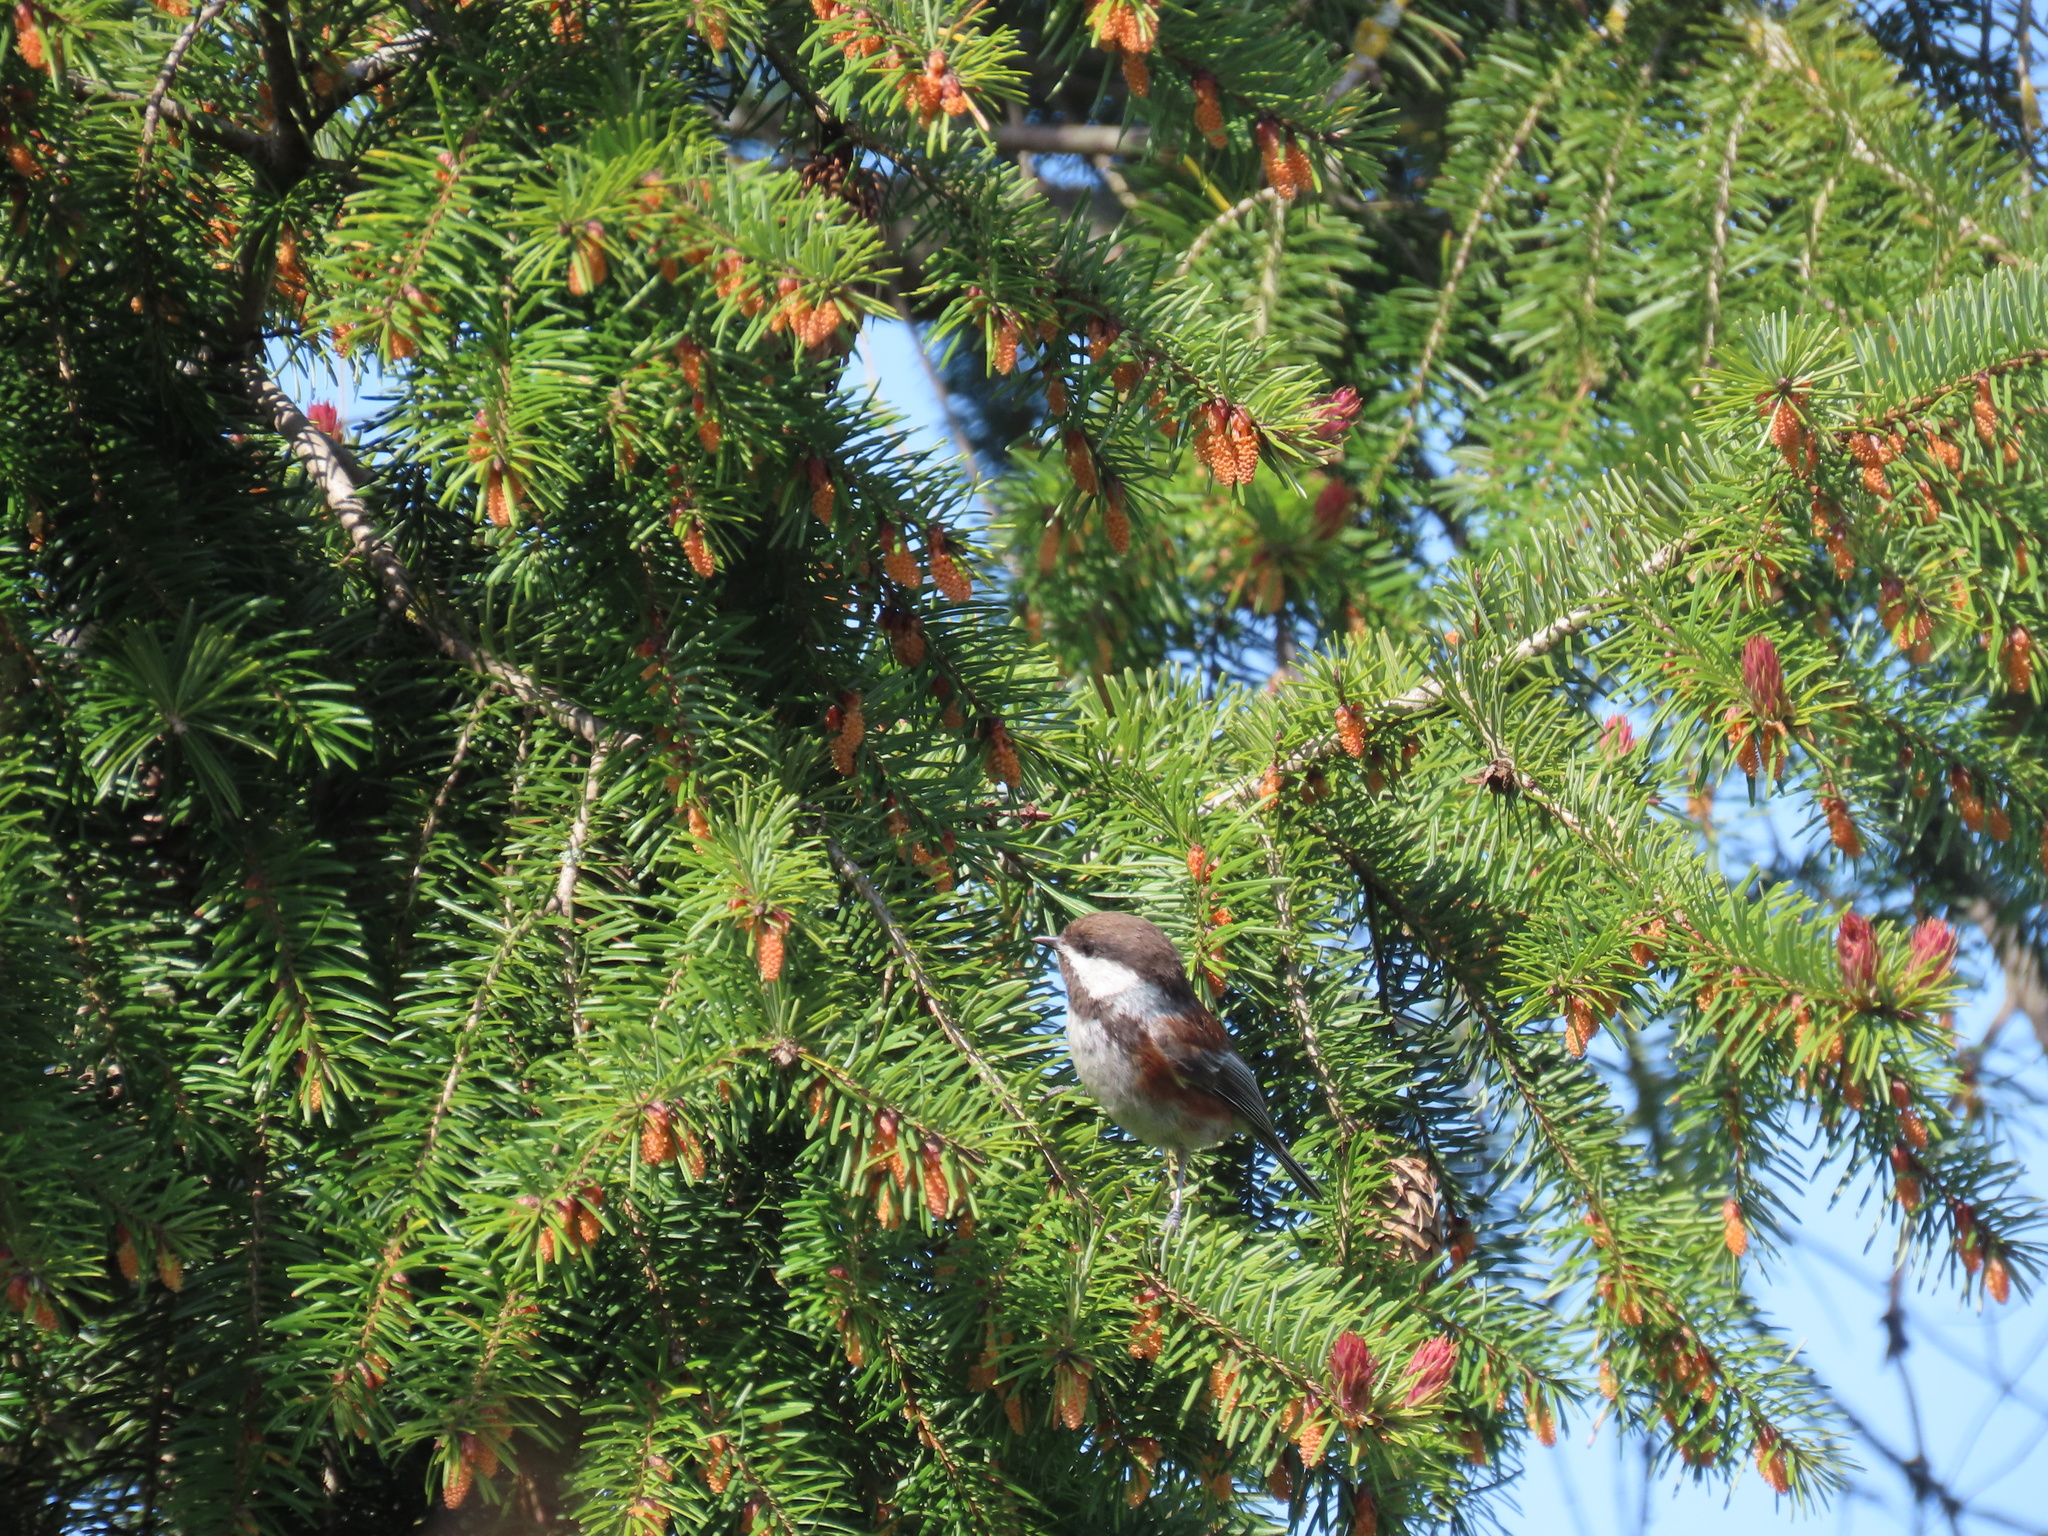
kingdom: Animalia
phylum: Chordata
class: Aves
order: Passeriformes
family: Paridae
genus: Poecile
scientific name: Poecile rufescens
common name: Chestnut-backed chickadee
